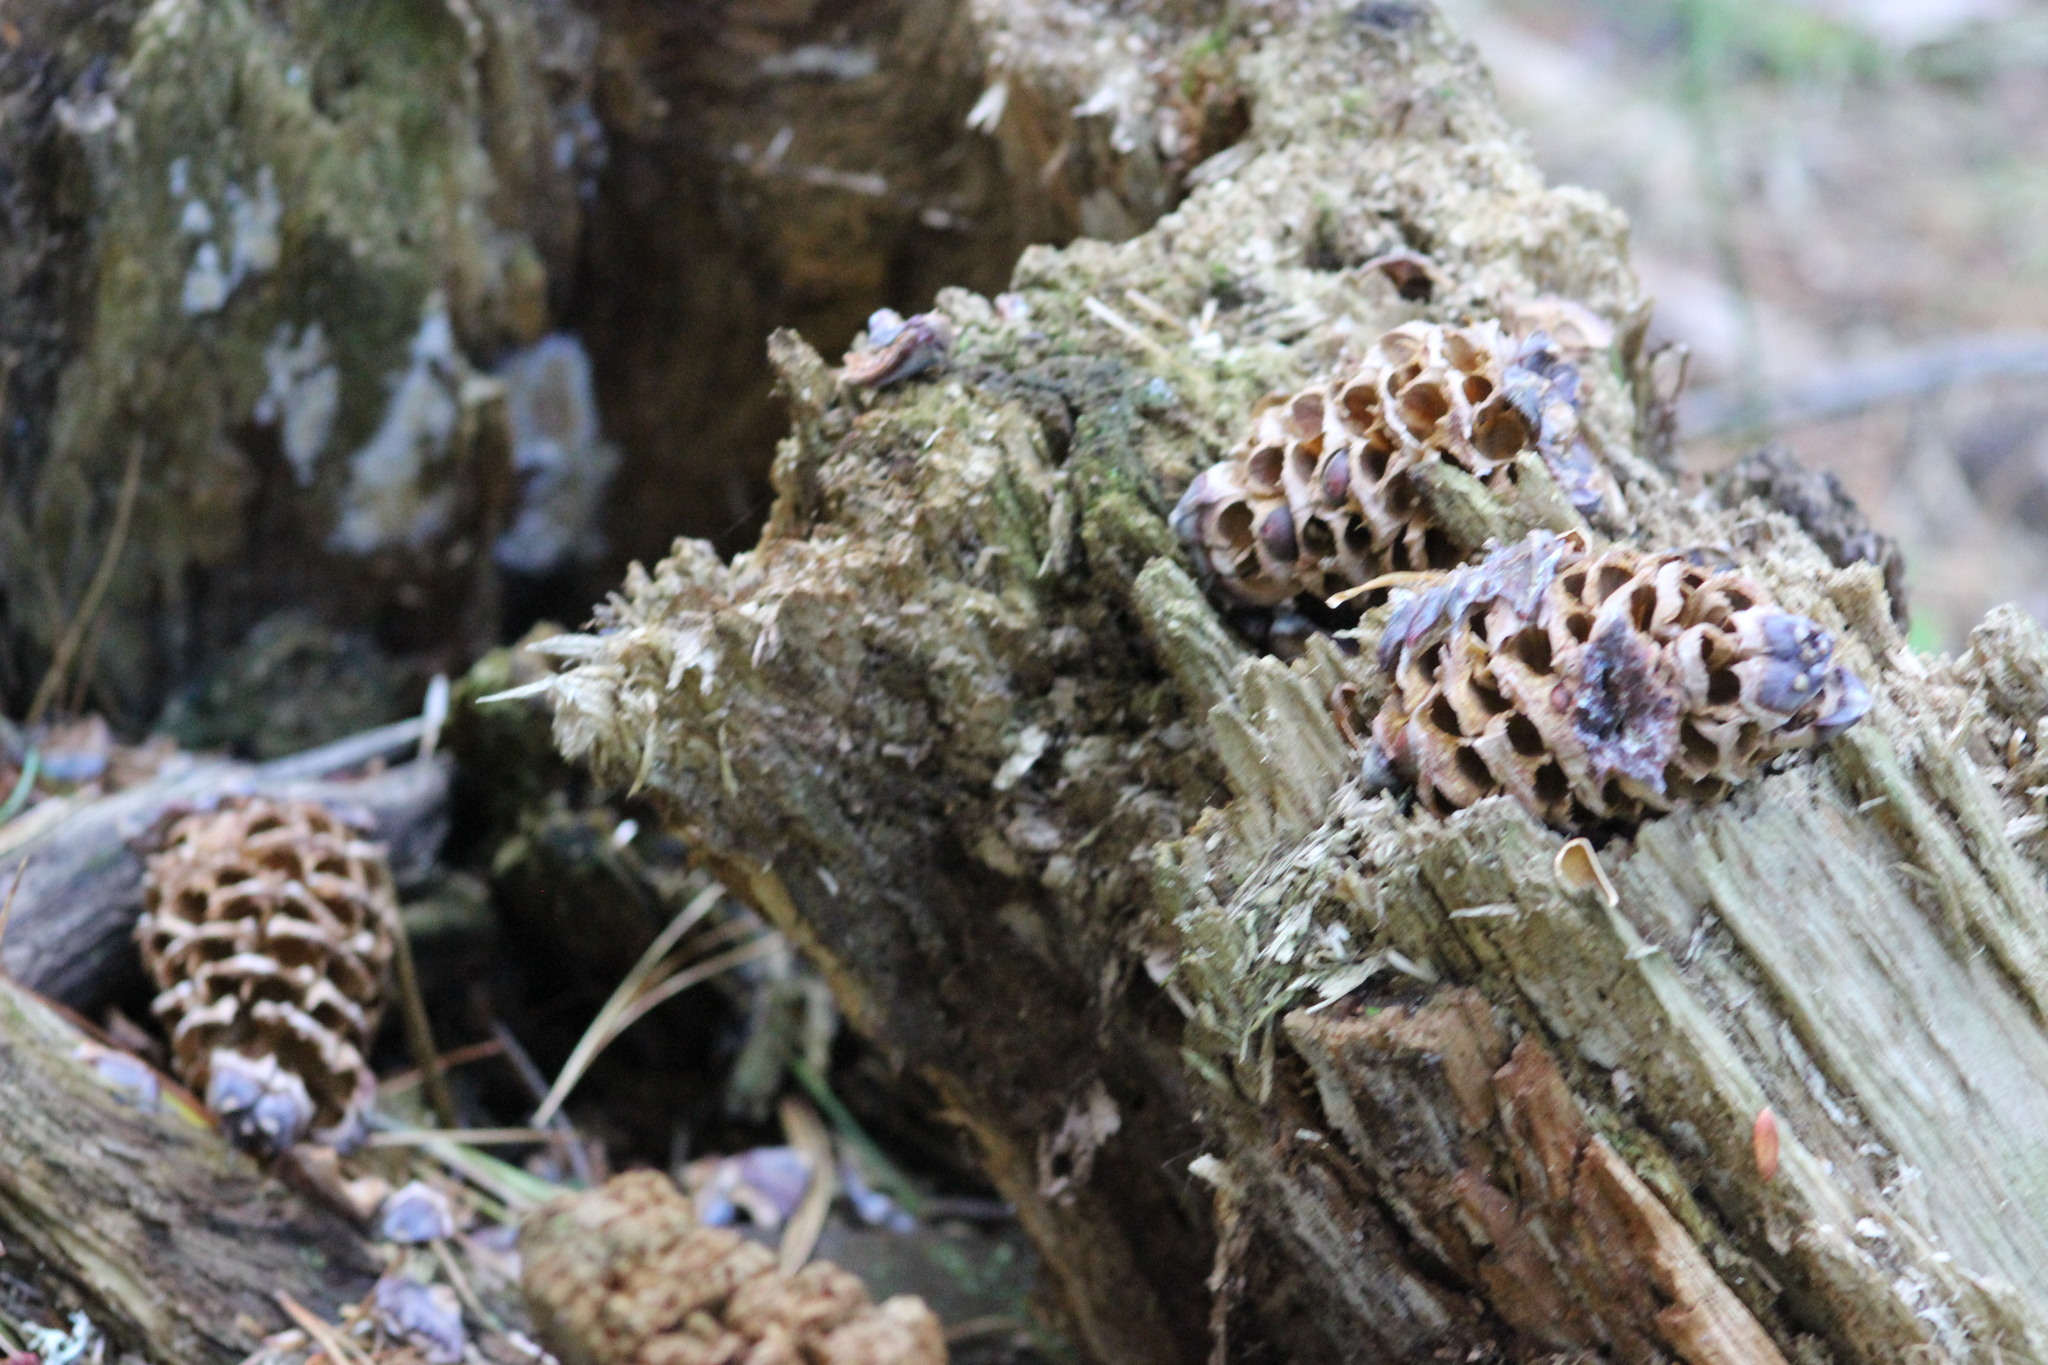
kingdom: Plantae
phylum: Tracheophyta
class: Pinopsida
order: Pinales
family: Pinaceae
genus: Pinus
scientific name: Pinus sibirica
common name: Siberian pine
